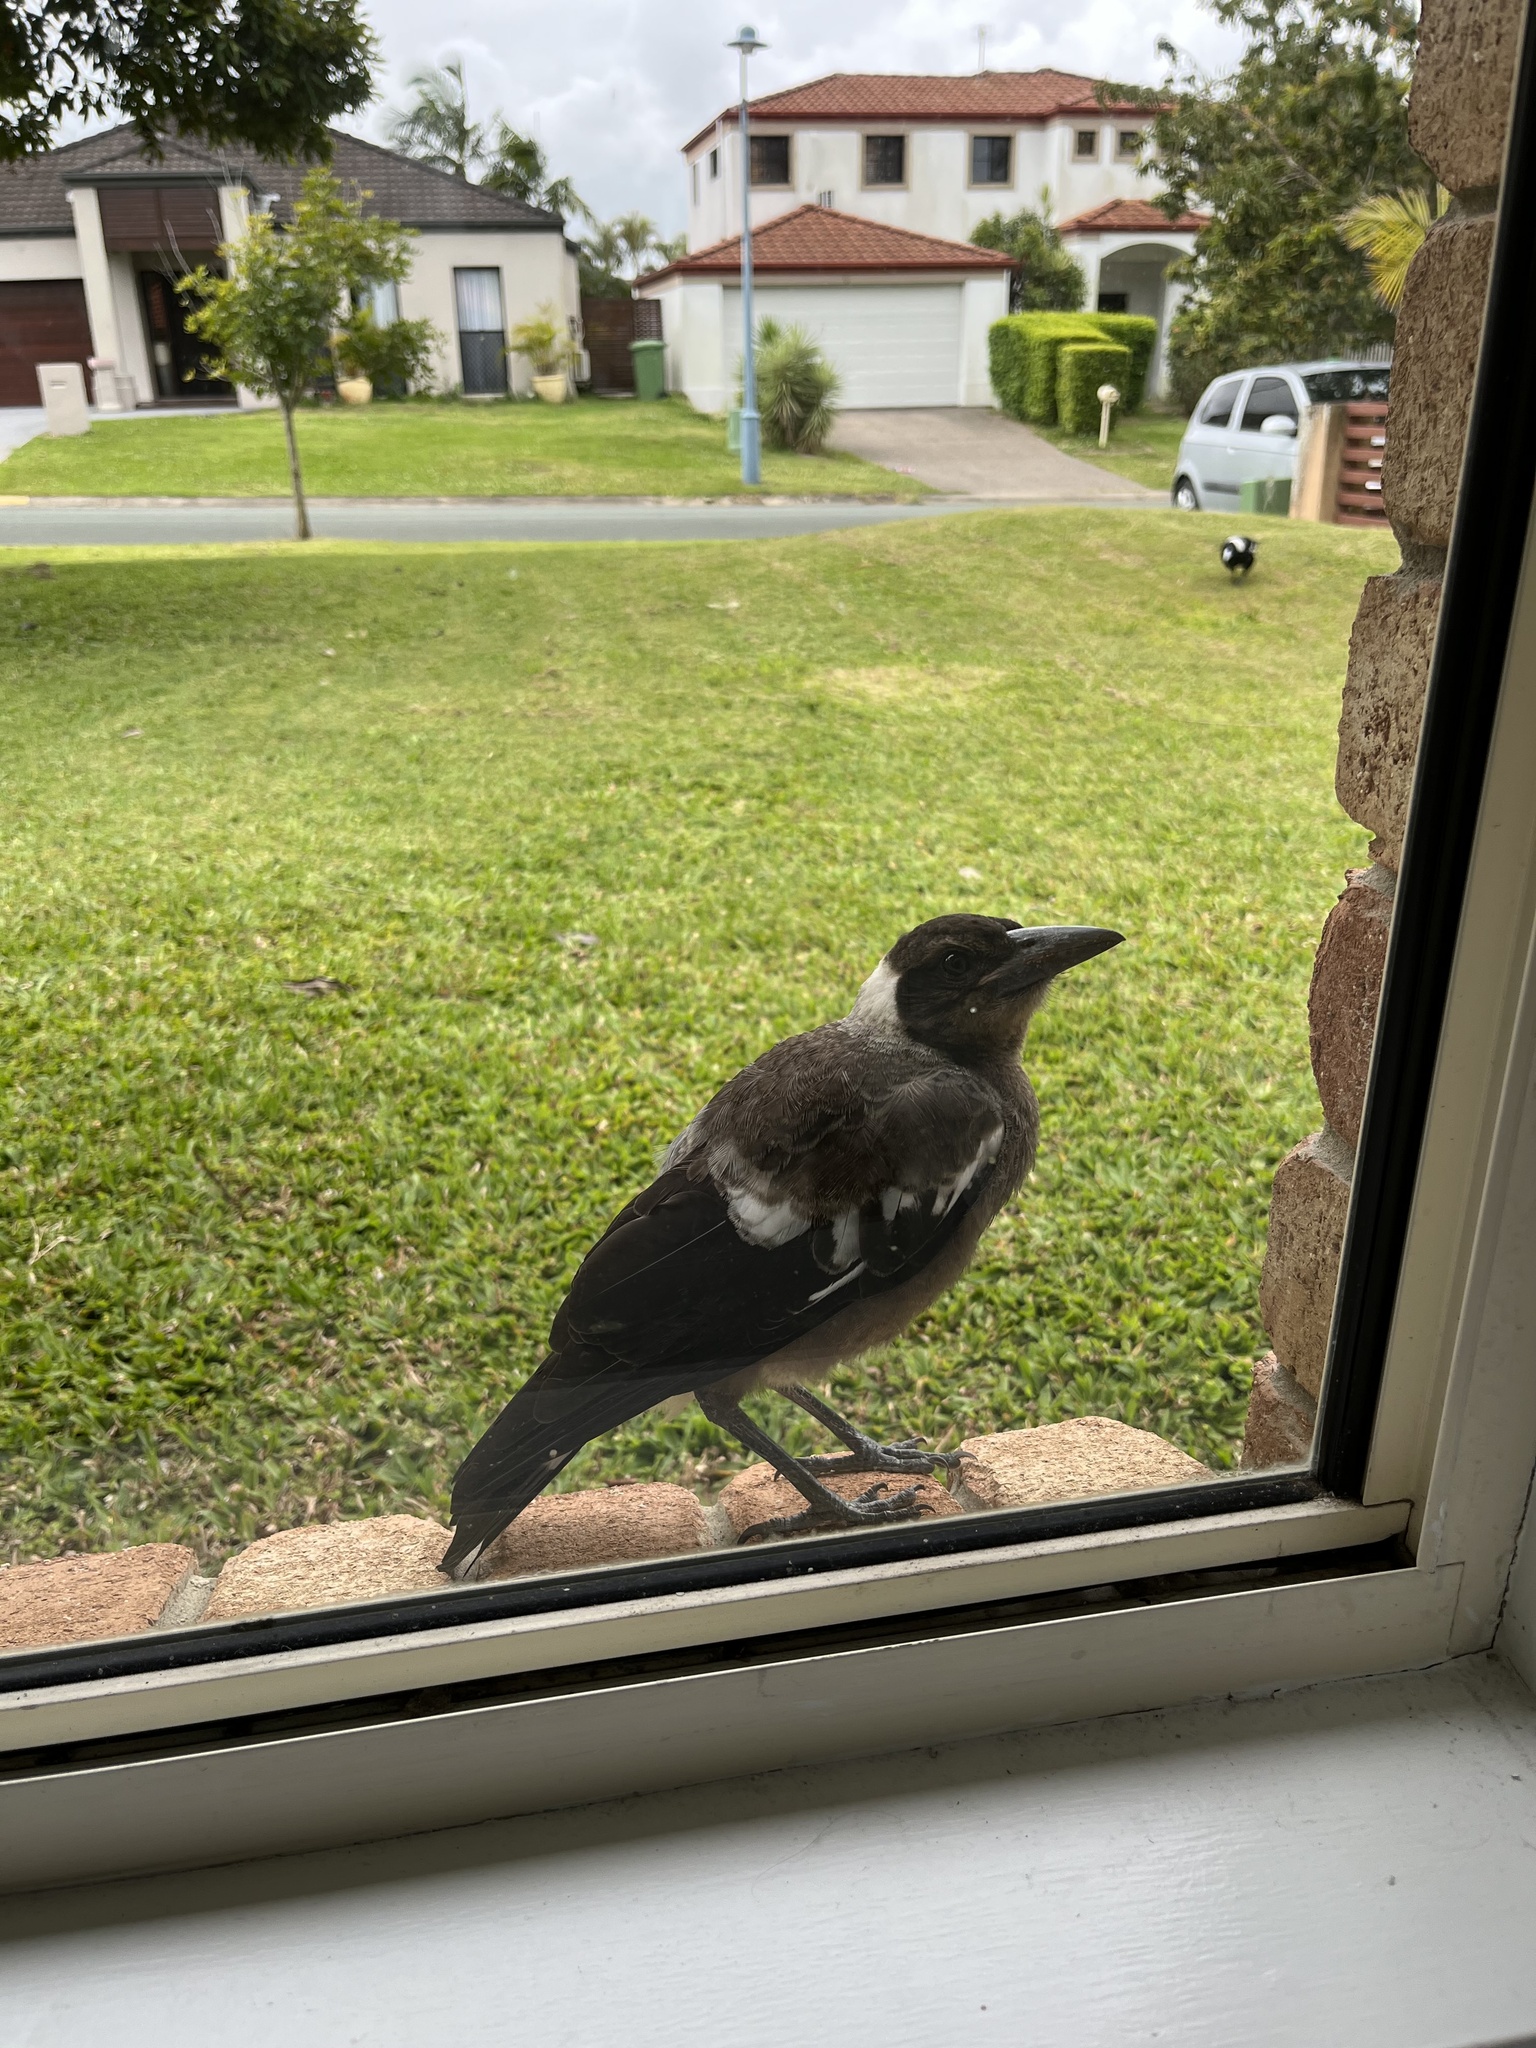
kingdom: Animalia
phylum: Chordata
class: Aves
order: Passeriformes
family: Cracticidae
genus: Gymnorhina
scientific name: Gymnorhina tibicen
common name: Australian magpie
